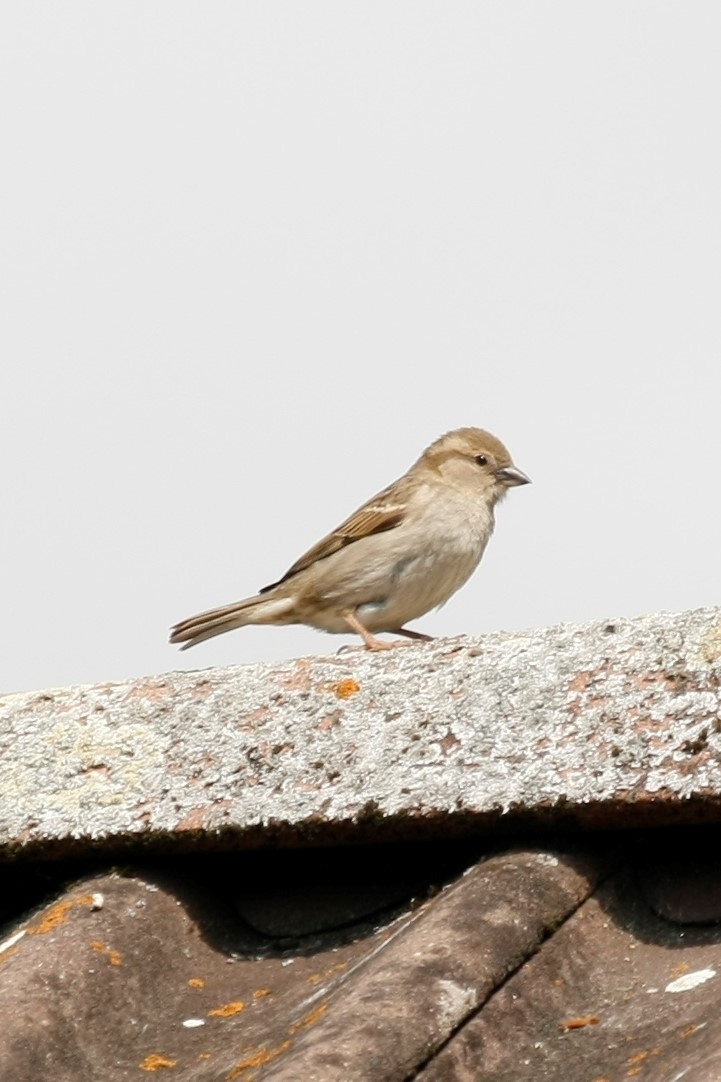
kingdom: Animalia
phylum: Chordata
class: Aves
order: Passeriformes
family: Passeridae
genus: Passer
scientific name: Passer domesticus
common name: House sparrow
